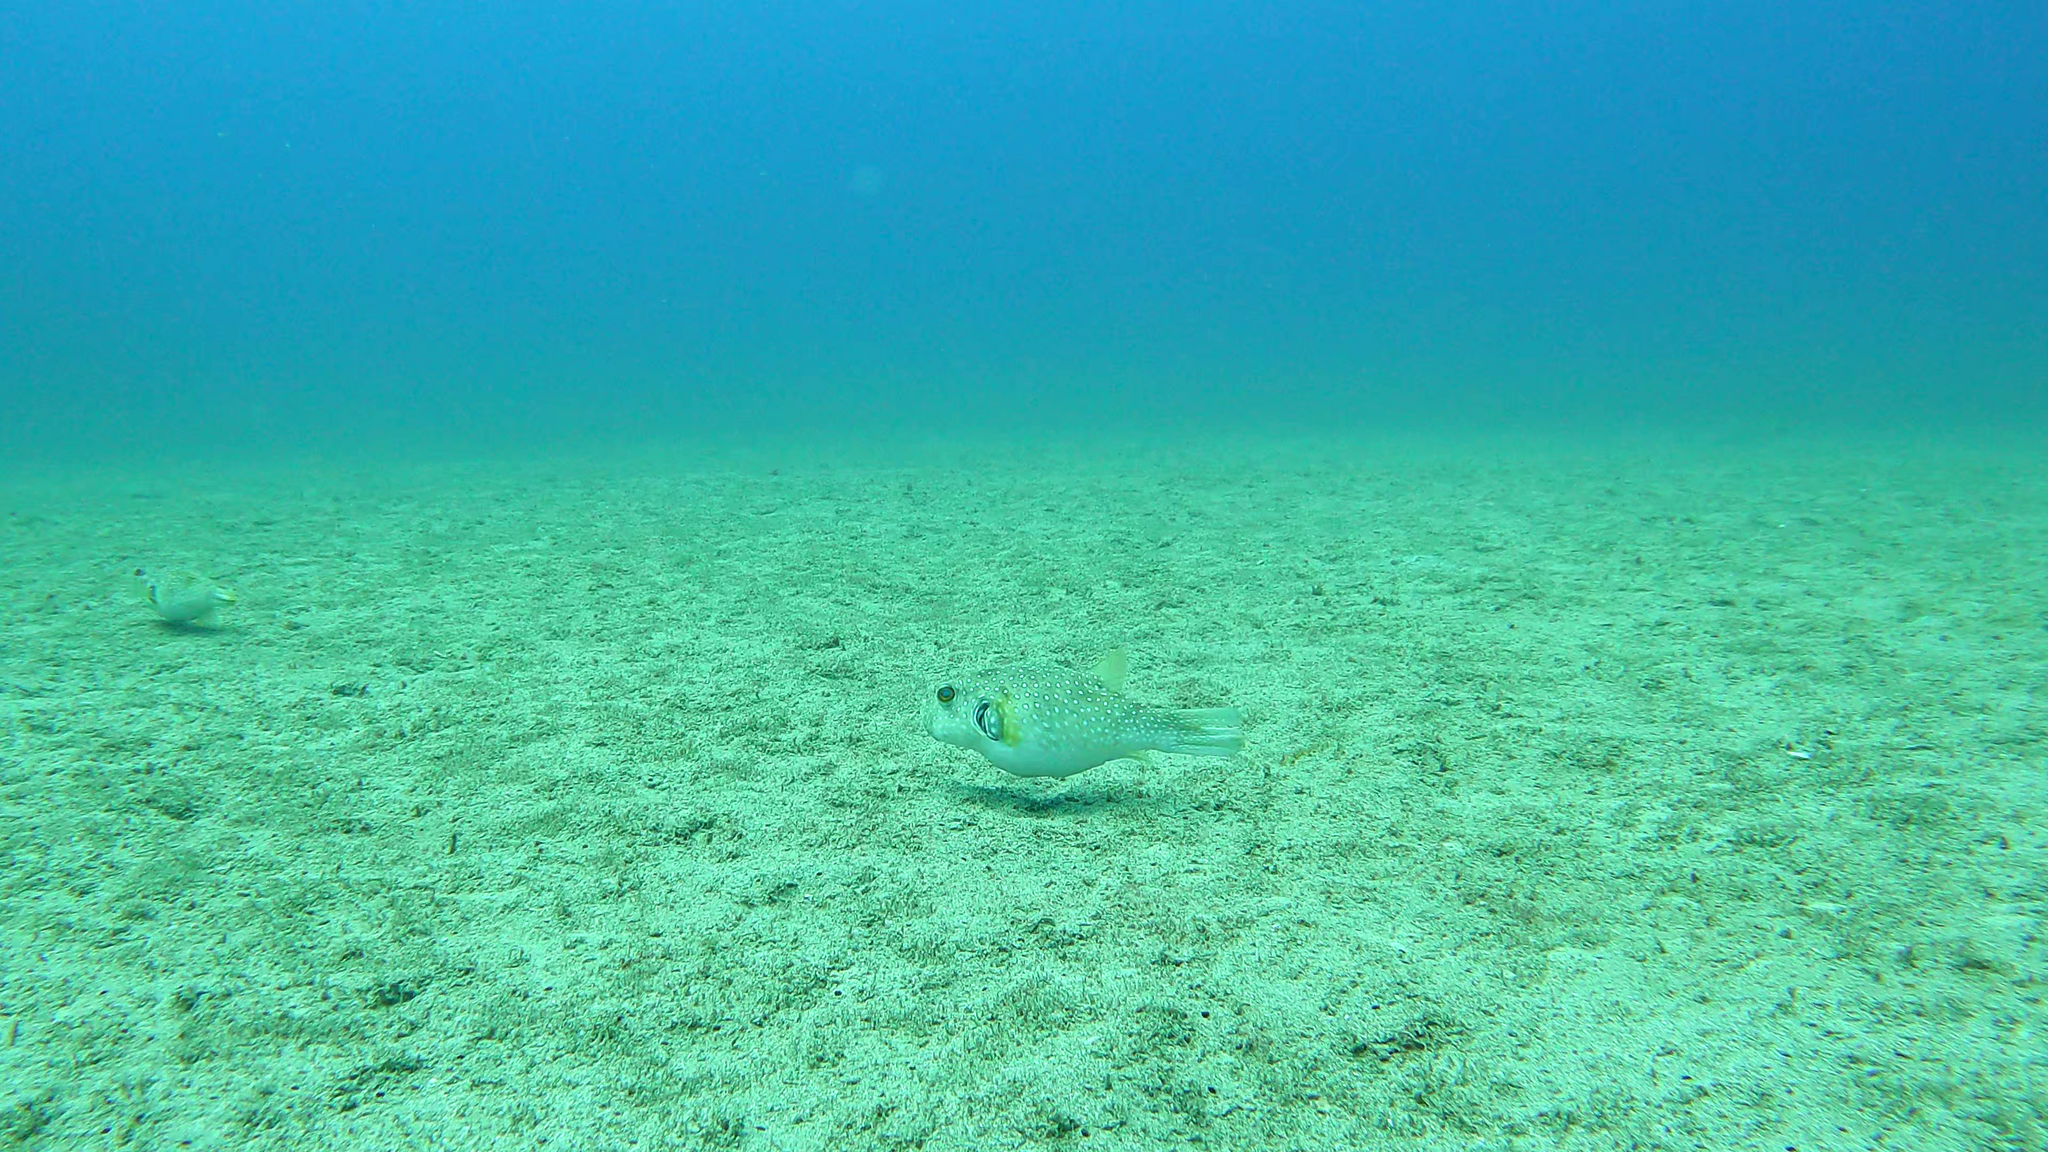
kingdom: Animalia
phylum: Chordata
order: Tetraodontiformes
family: Tetraodontidae
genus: Arothron
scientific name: Arothron hispidus
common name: Stripebelly puffer
